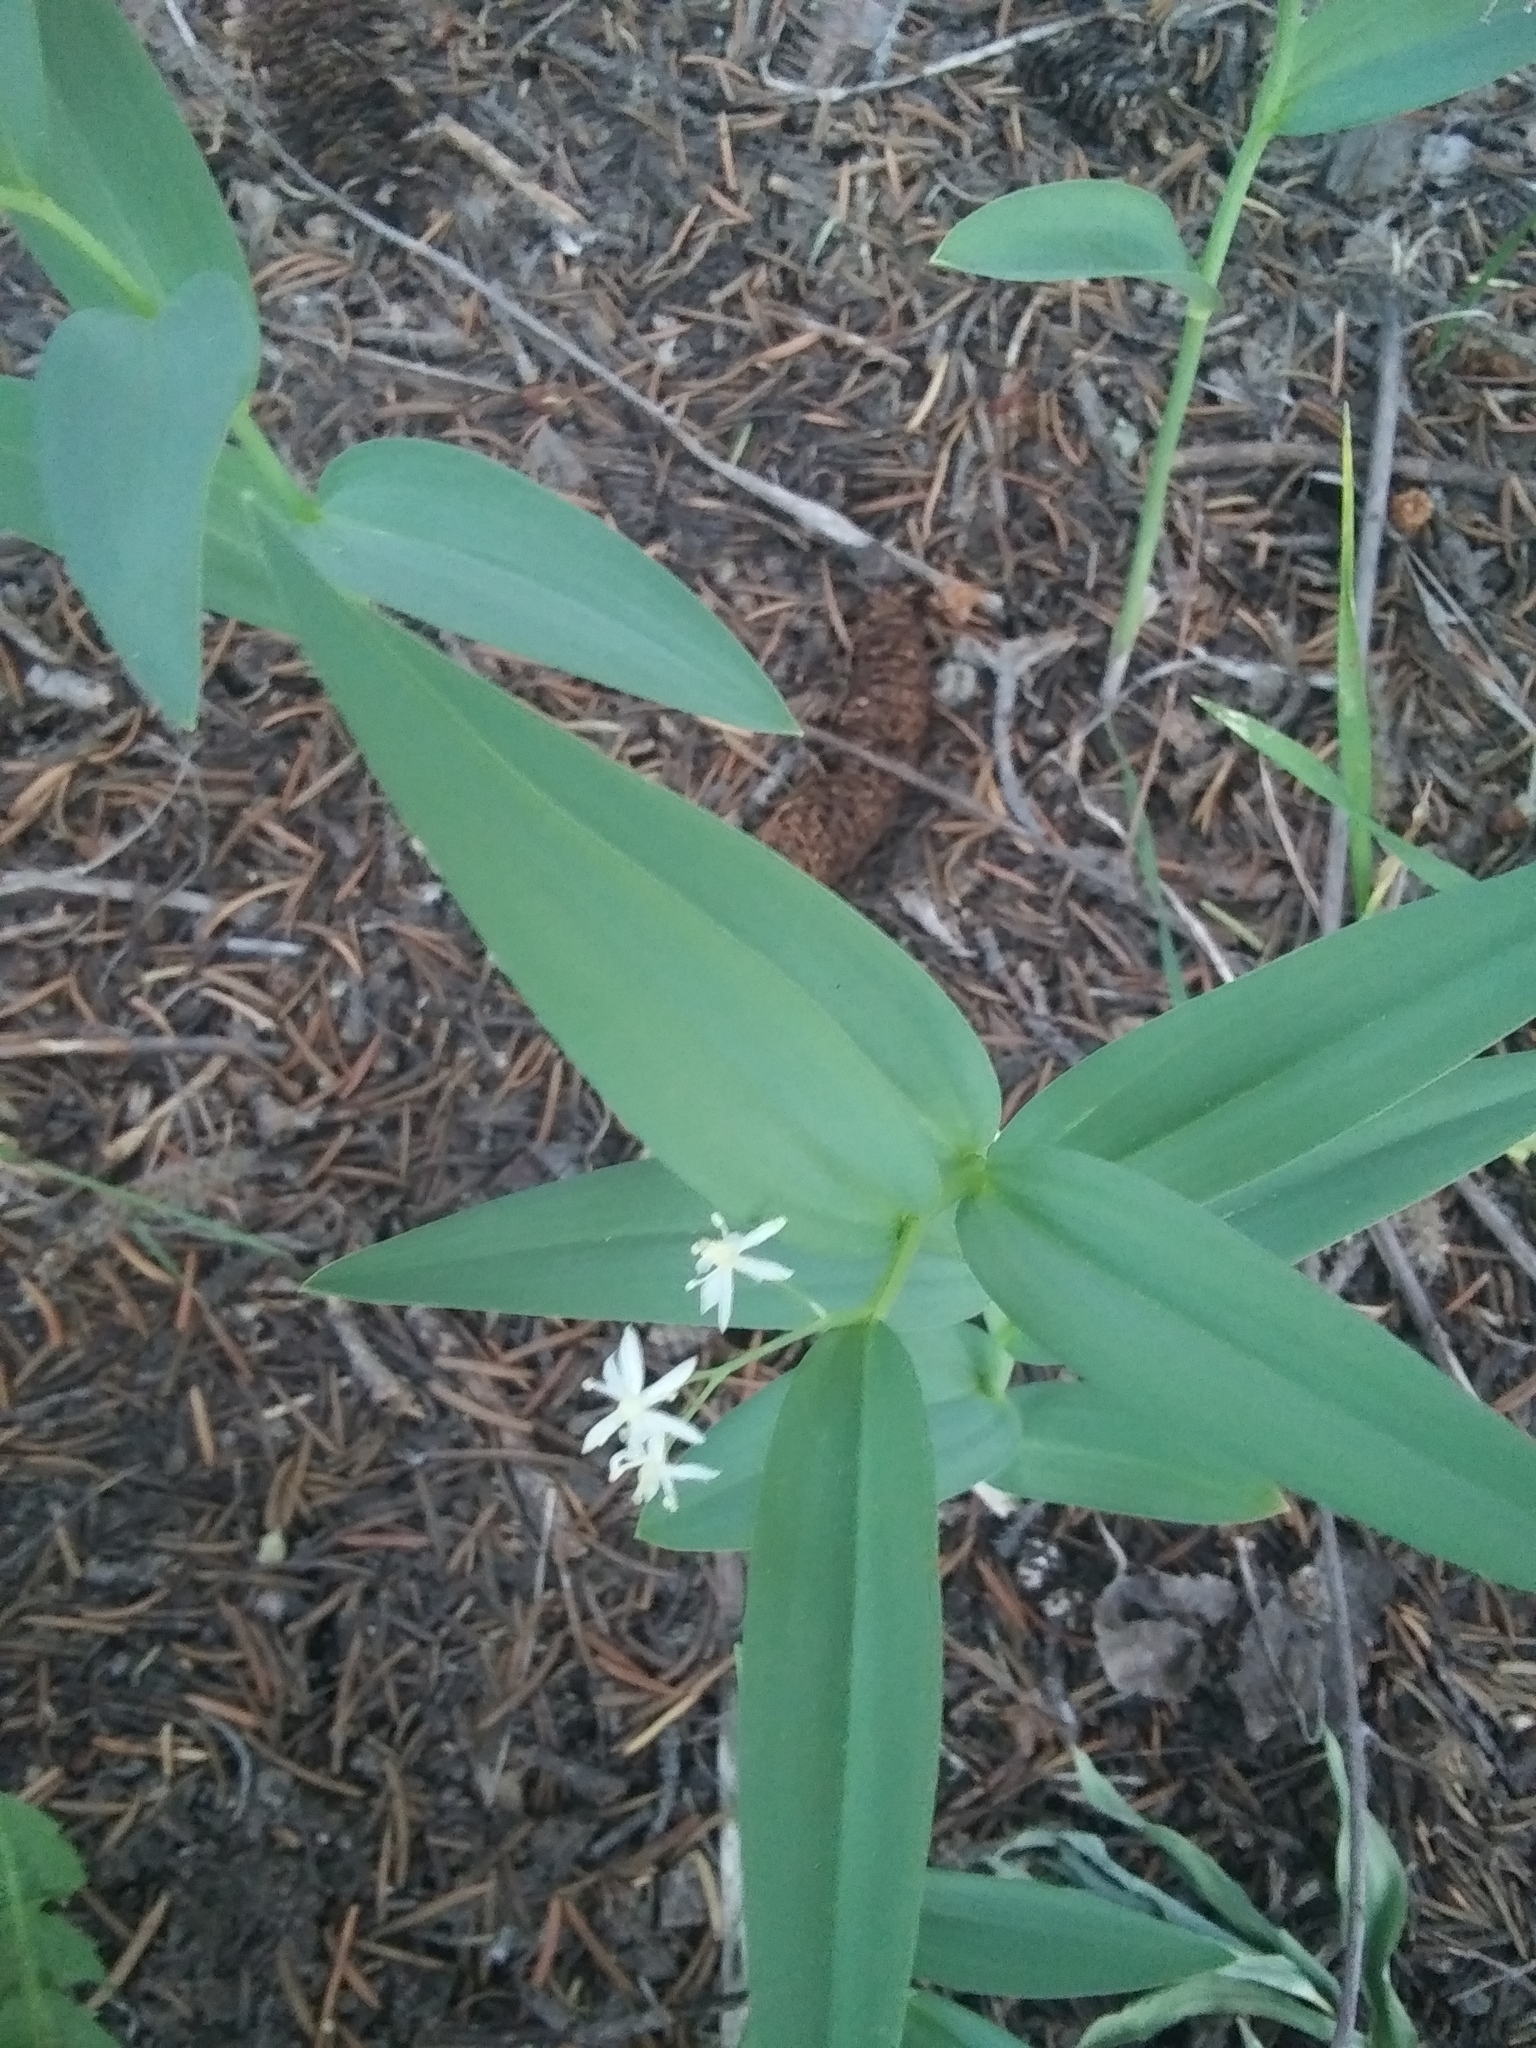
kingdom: Plantae
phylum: Tracheophyta
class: Liliopsida
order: Asparagales
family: Asparagaceae
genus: Maianthemum
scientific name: Maianthemum stellatum
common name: Little false solomon's seal
